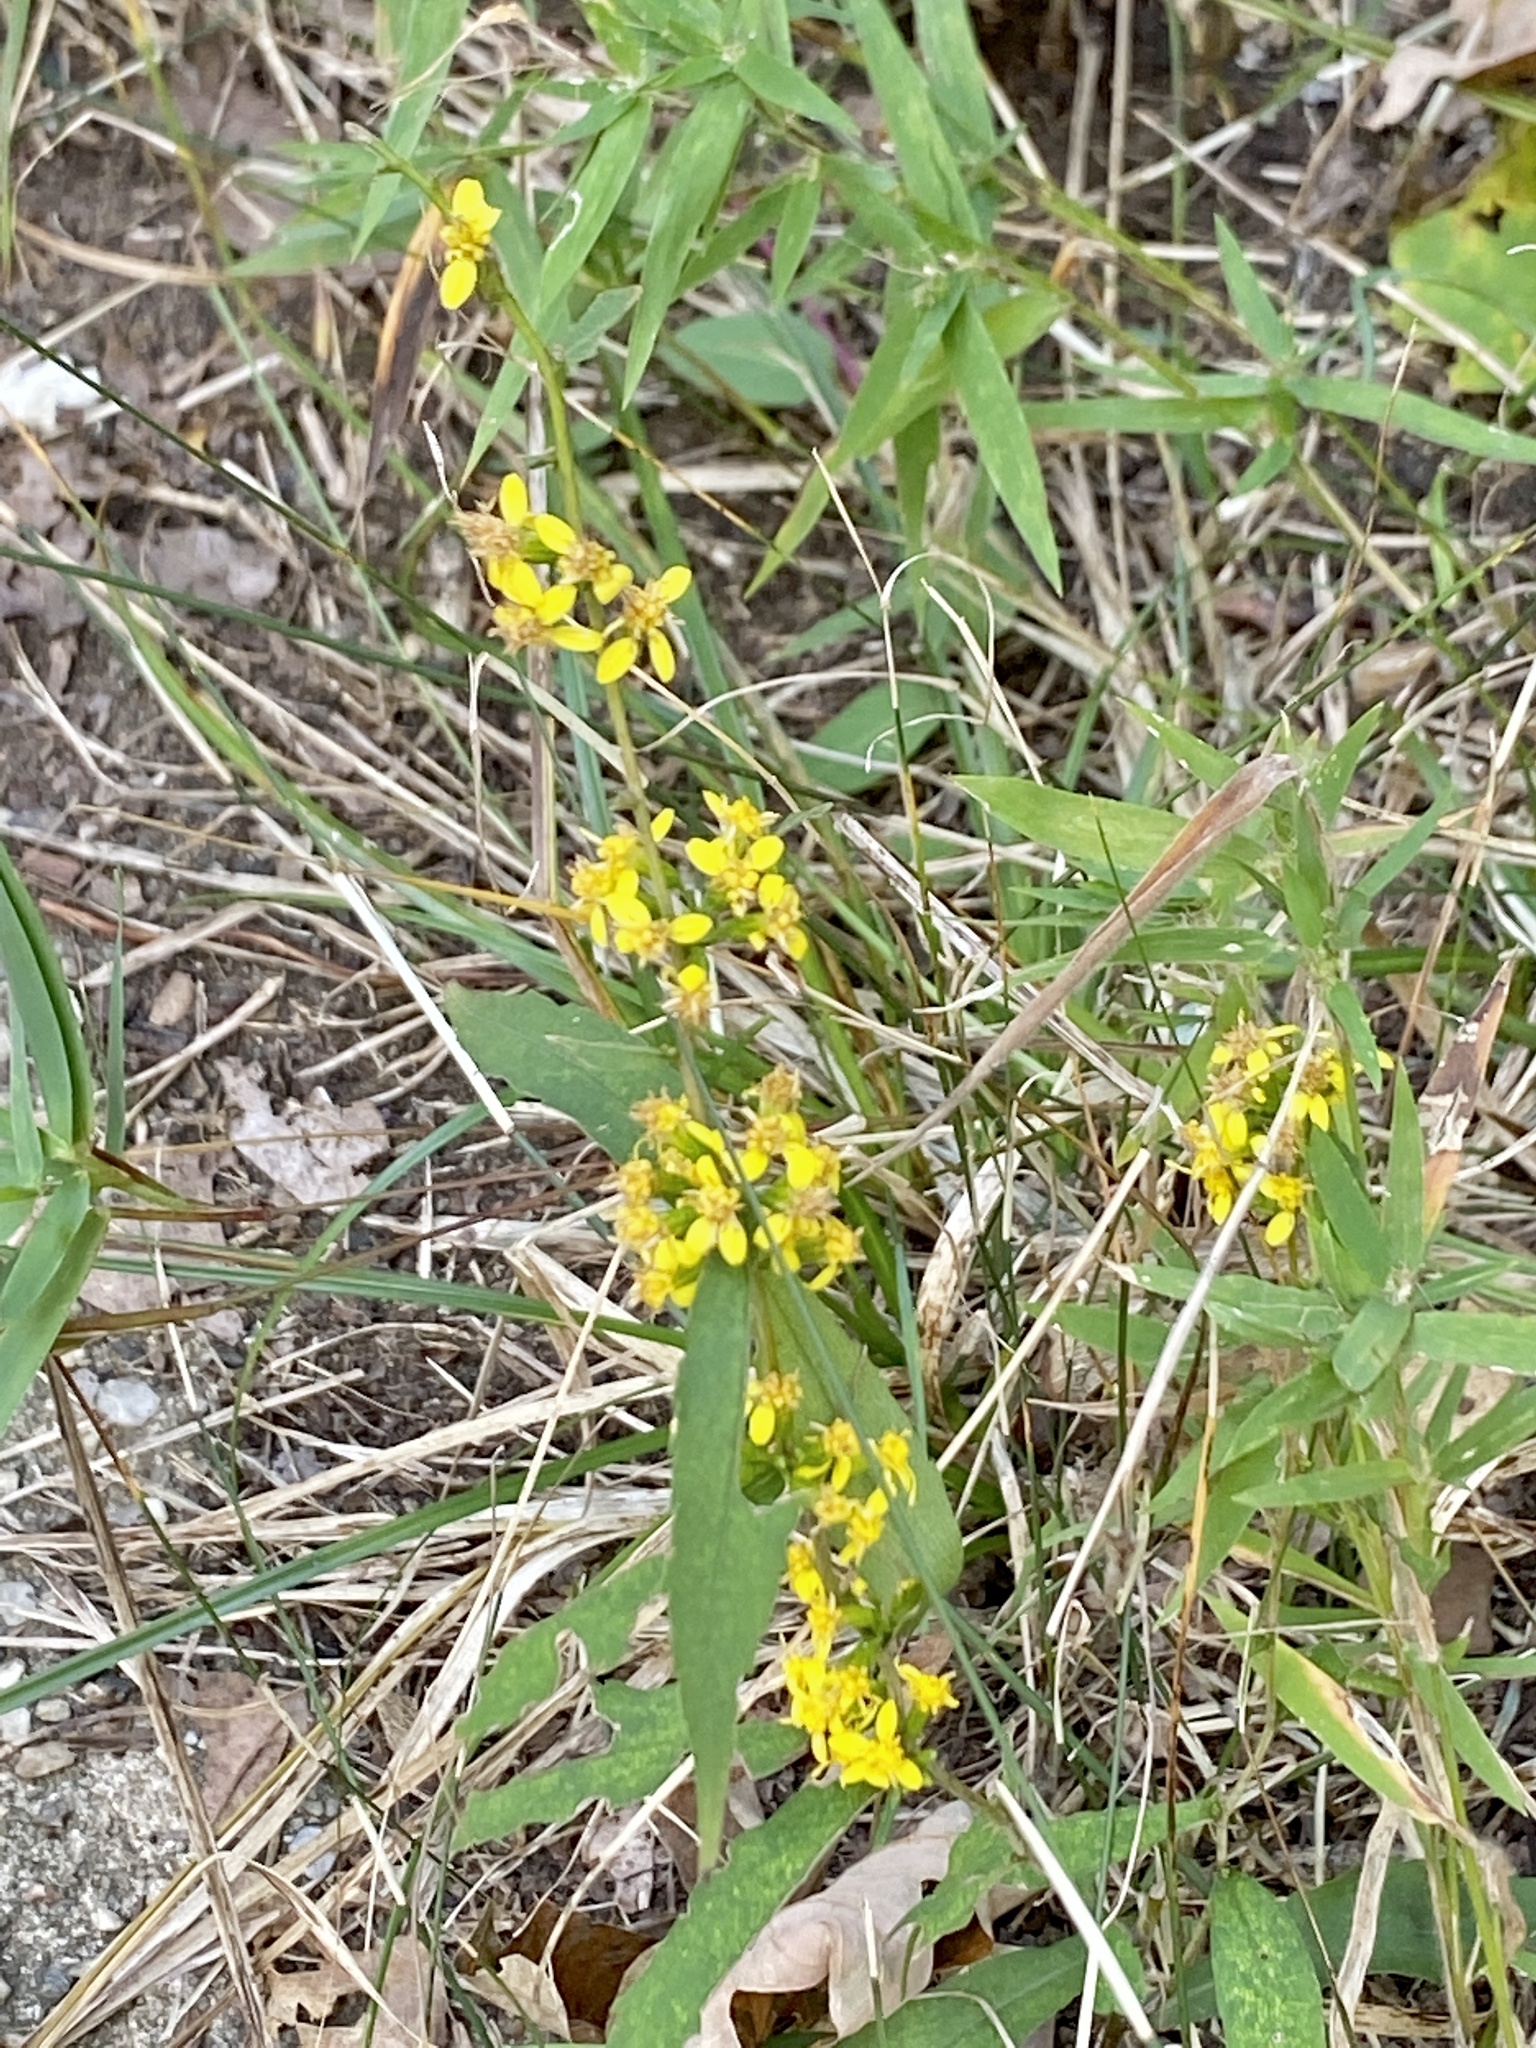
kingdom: Plantae
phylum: Tracheophyta
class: Magnoliopsida
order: Asterales
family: Asteraceae
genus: Solidago
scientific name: Solidago caesia
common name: Woodland goldenrod
